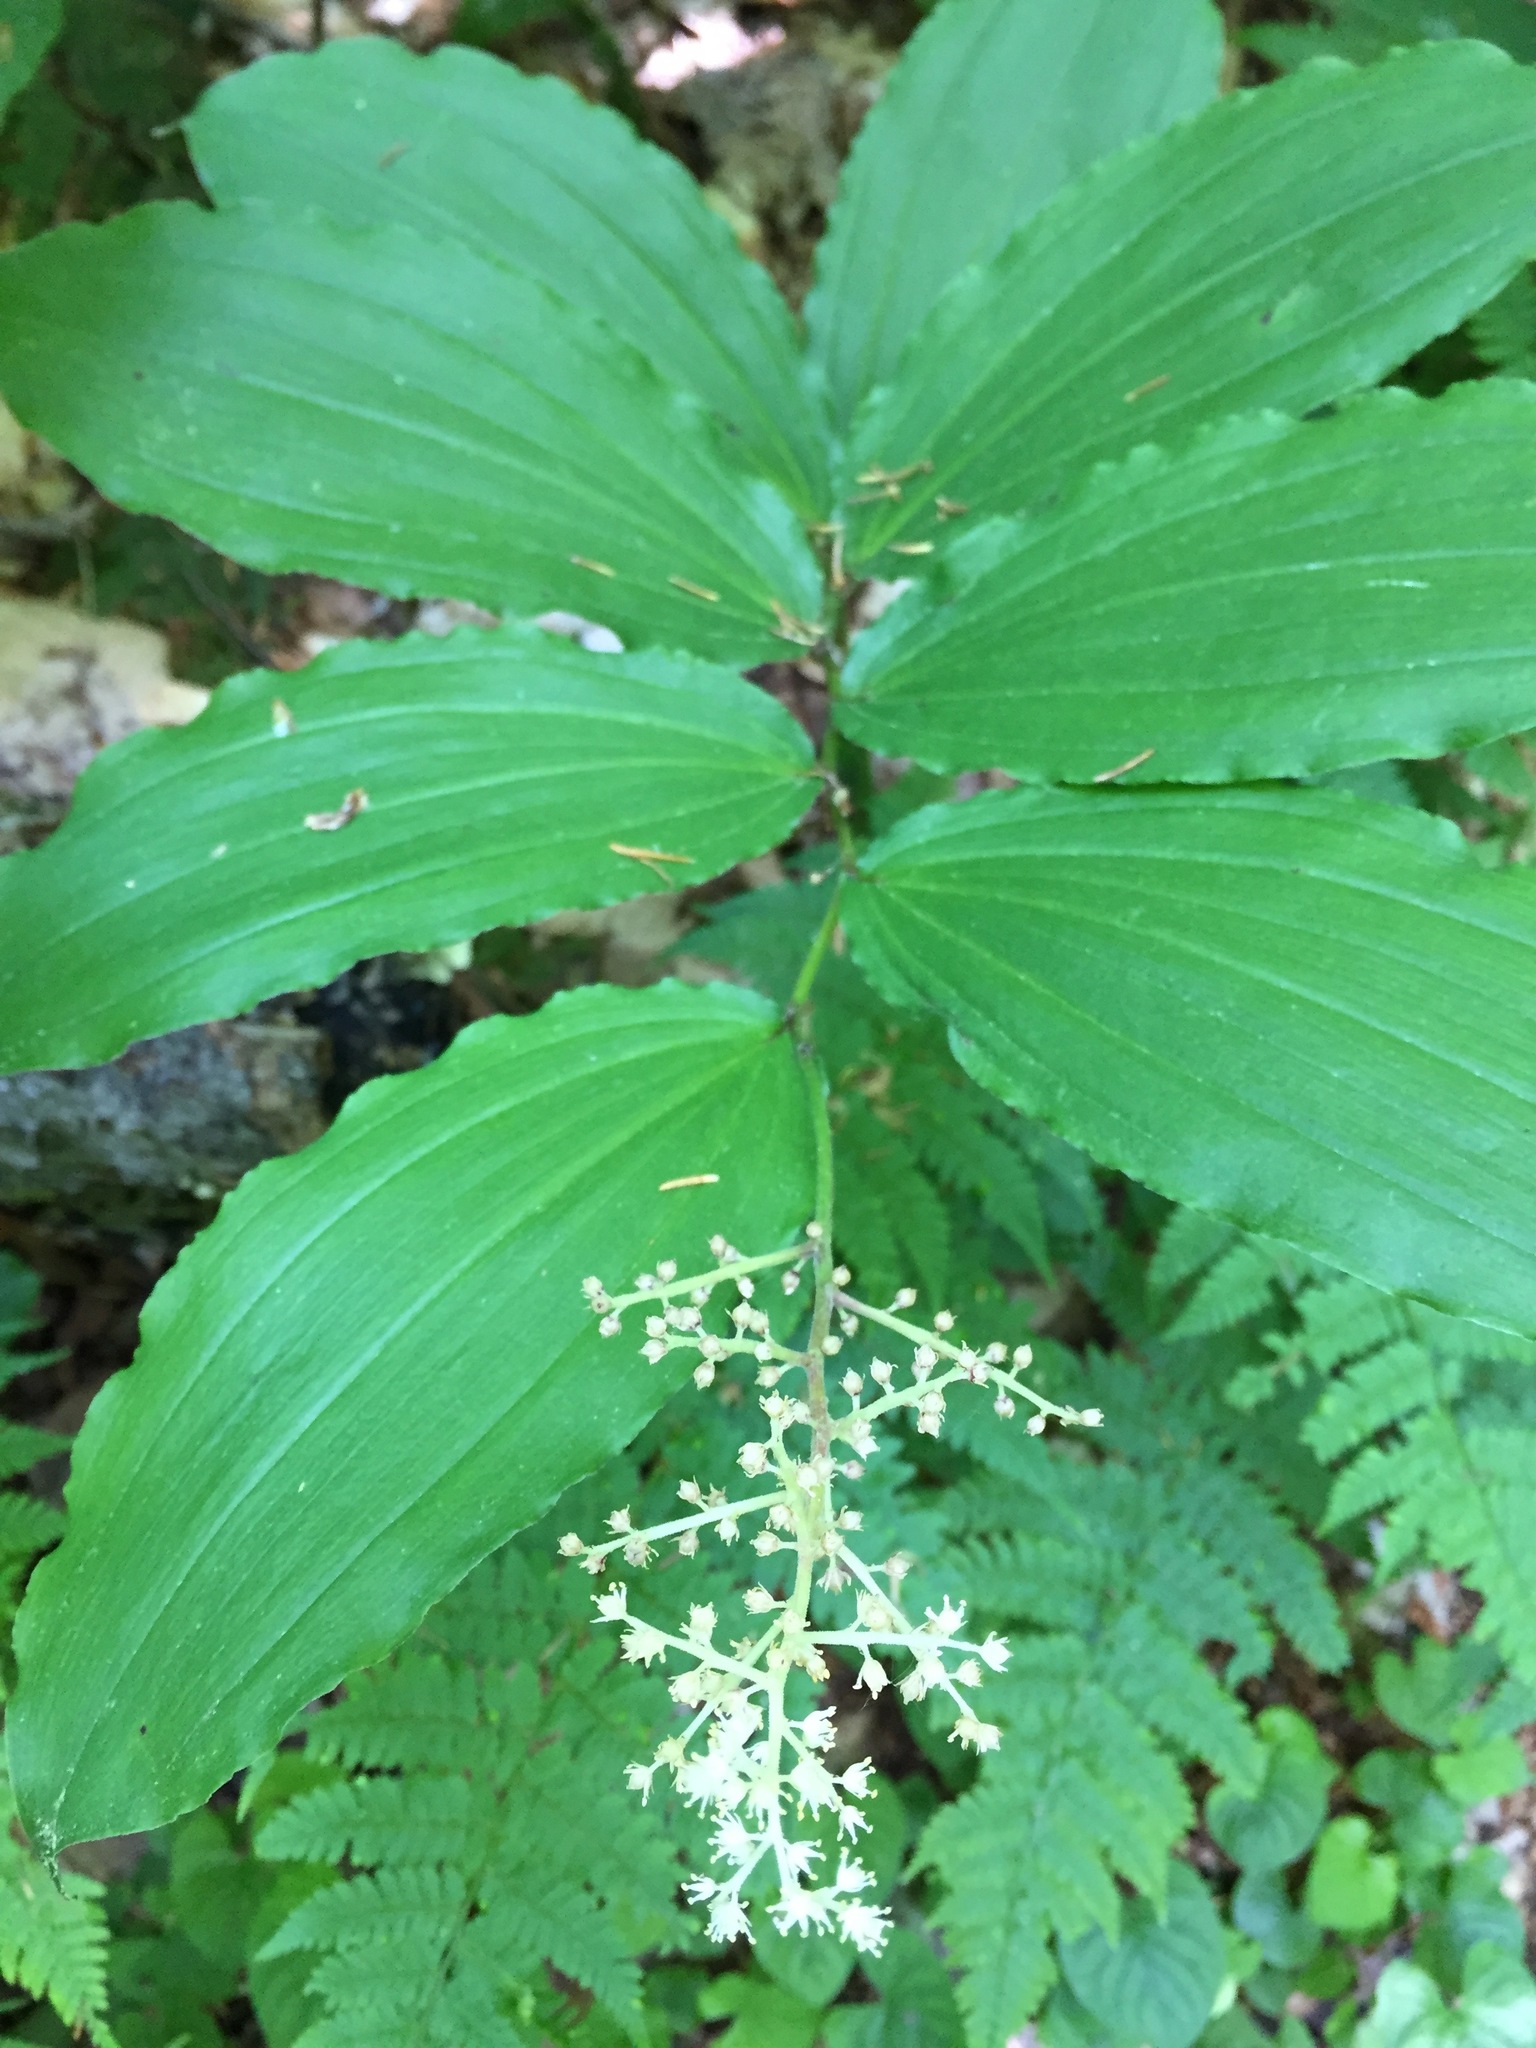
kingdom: Plantae
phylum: Tracheophyta
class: Liliopsida
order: Asparagales
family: Asparagaceae
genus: Maianthemum
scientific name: Maianthemum racemosum
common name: False spikenard
